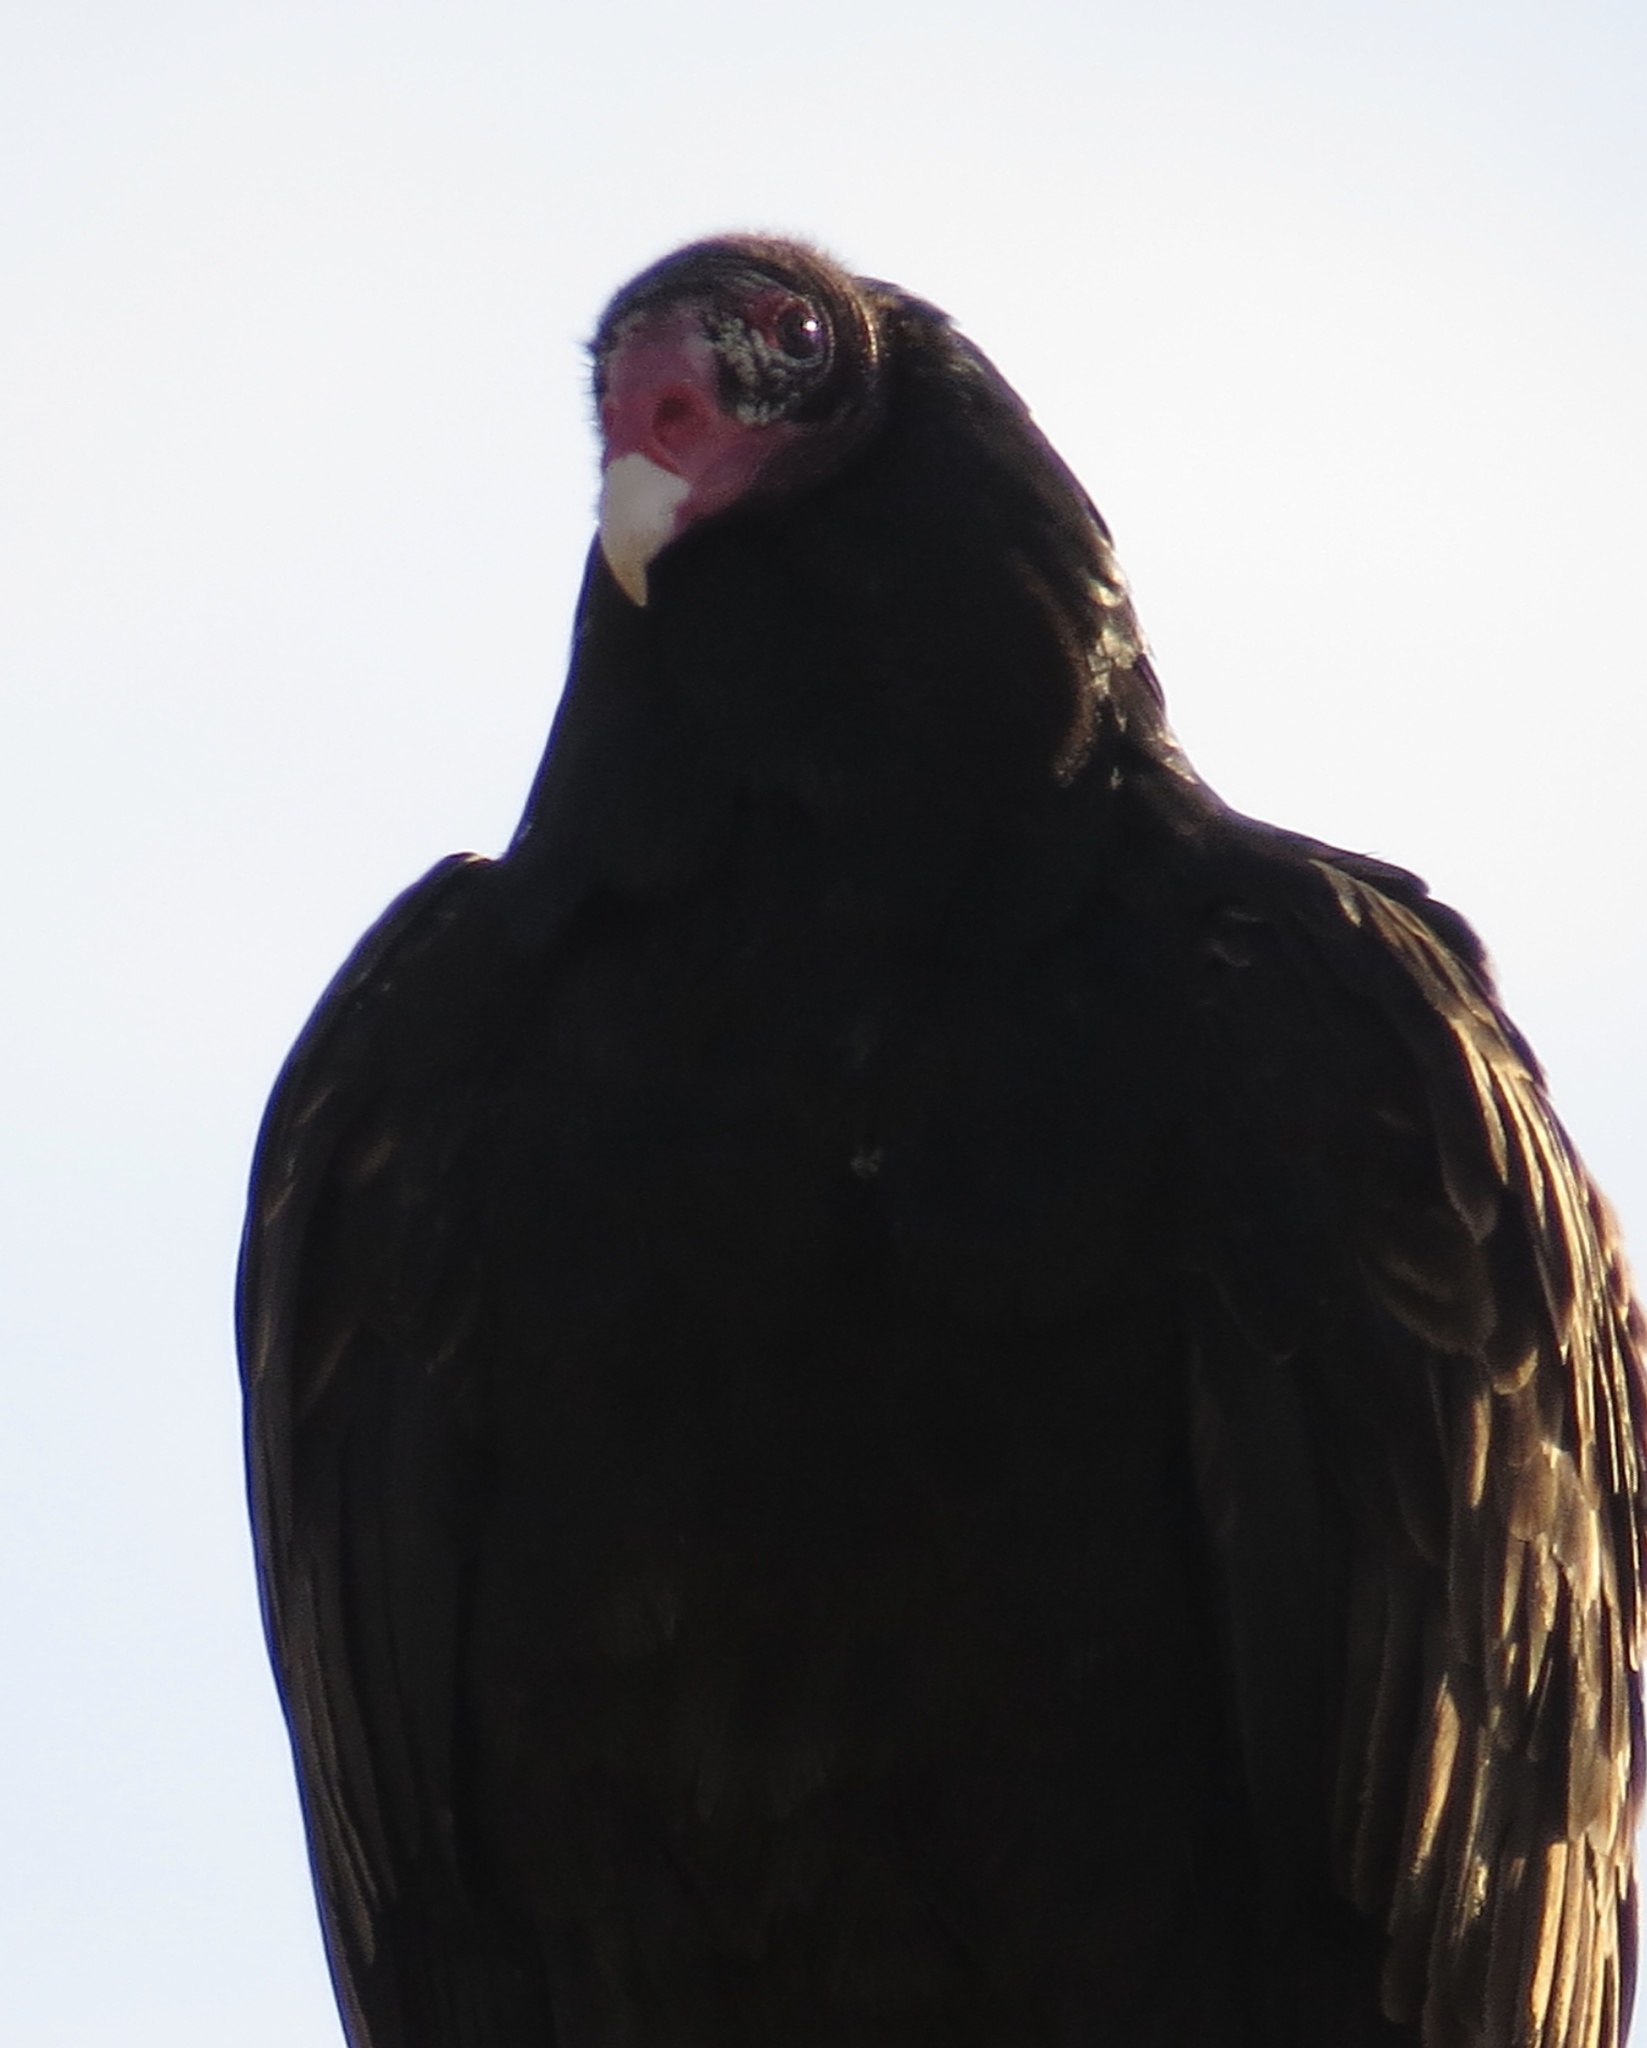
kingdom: Animalia
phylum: Chordata
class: Aves
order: Accipitriformes
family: Cathartidae
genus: Cathartes
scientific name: Cathartes aura
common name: Turkey vulture
